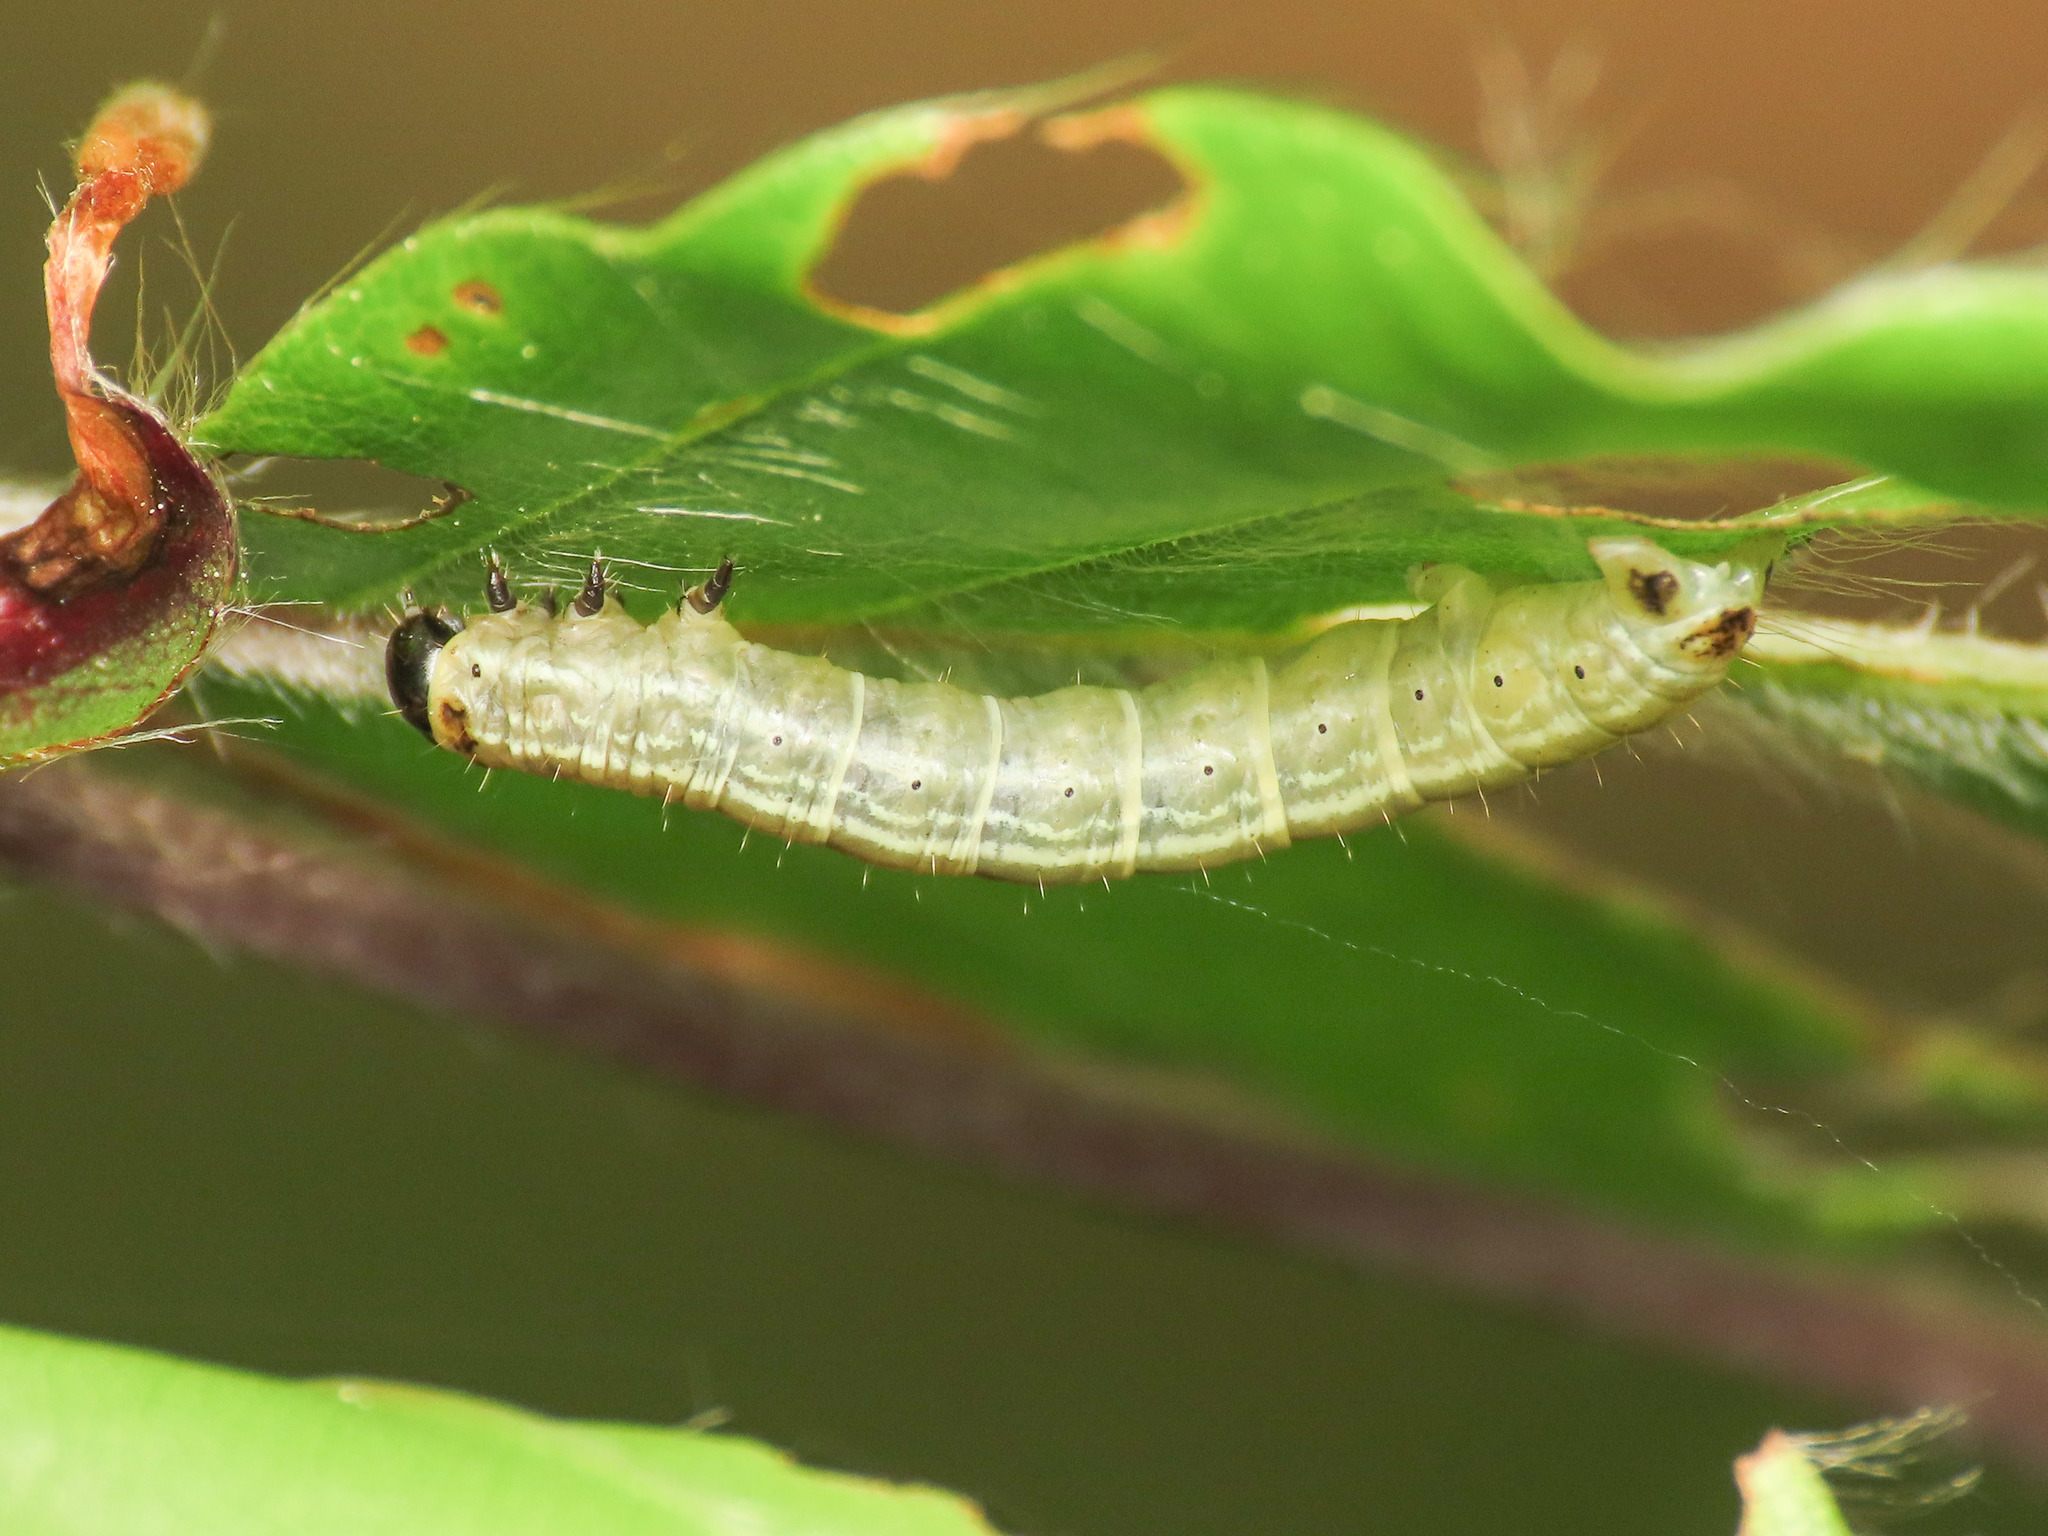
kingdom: Animalia
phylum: Arthropoda
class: Insecta
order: Lepidoptera
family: Geometridae
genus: Operophtera
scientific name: Operophtera fagata
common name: Northern winter moth
